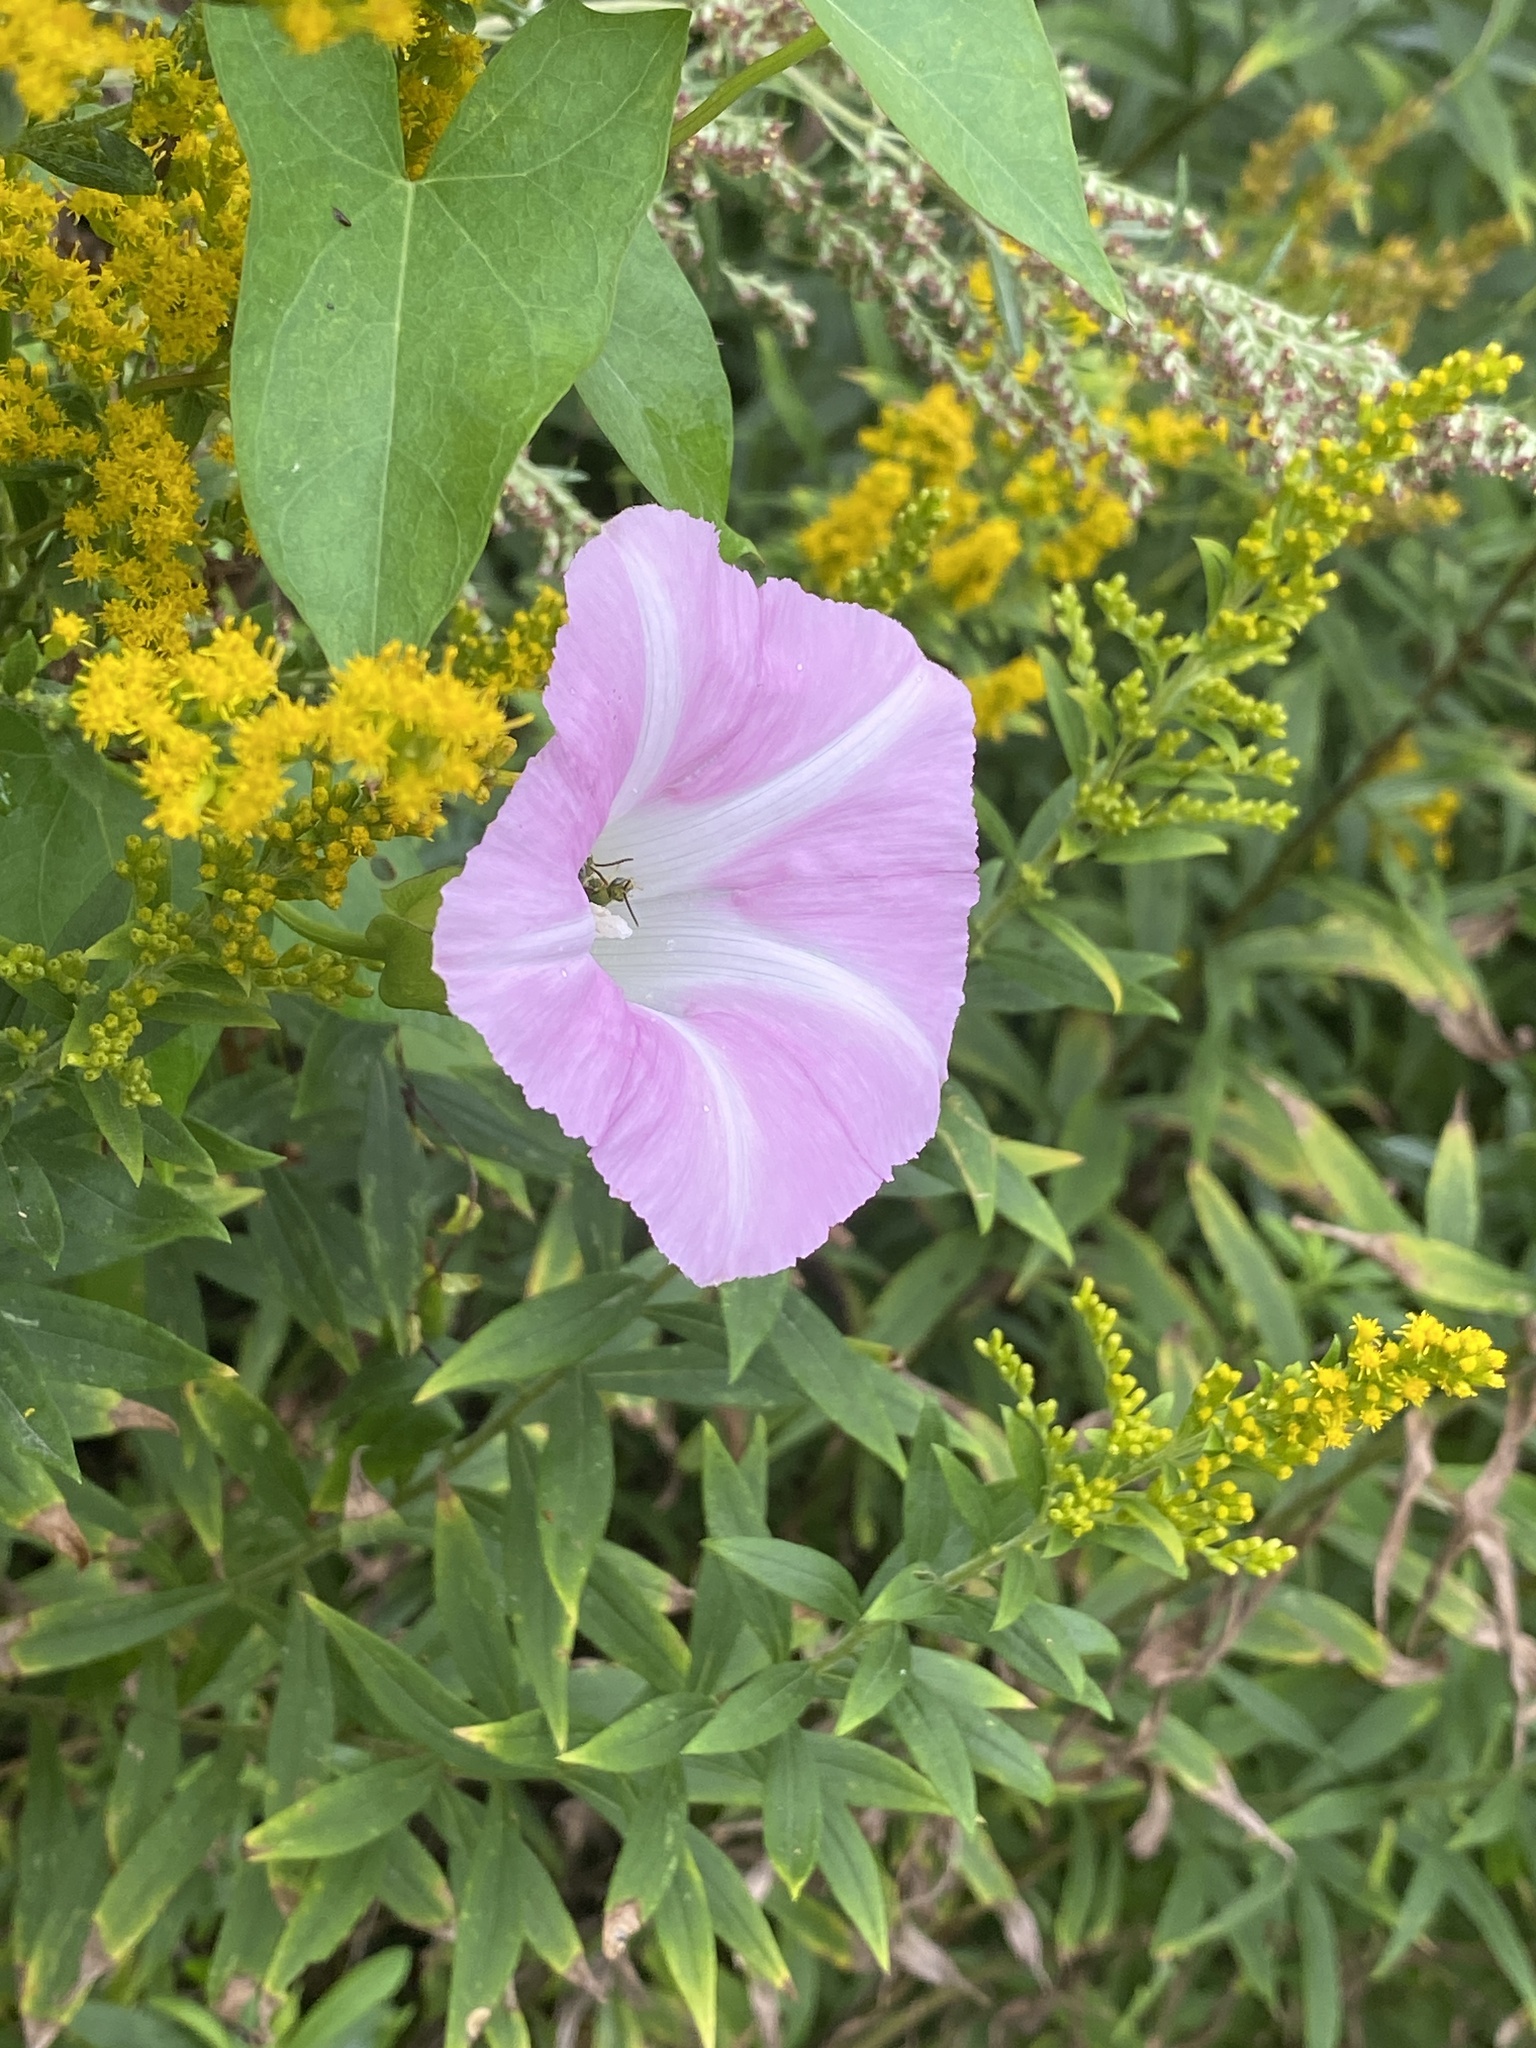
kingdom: Plantae
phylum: Tracheophyta
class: Magnoliopsida
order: Solanales
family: Convolvulaceae
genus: Calystegia
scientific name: Calystegia sepium
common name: Hedge bindweed
